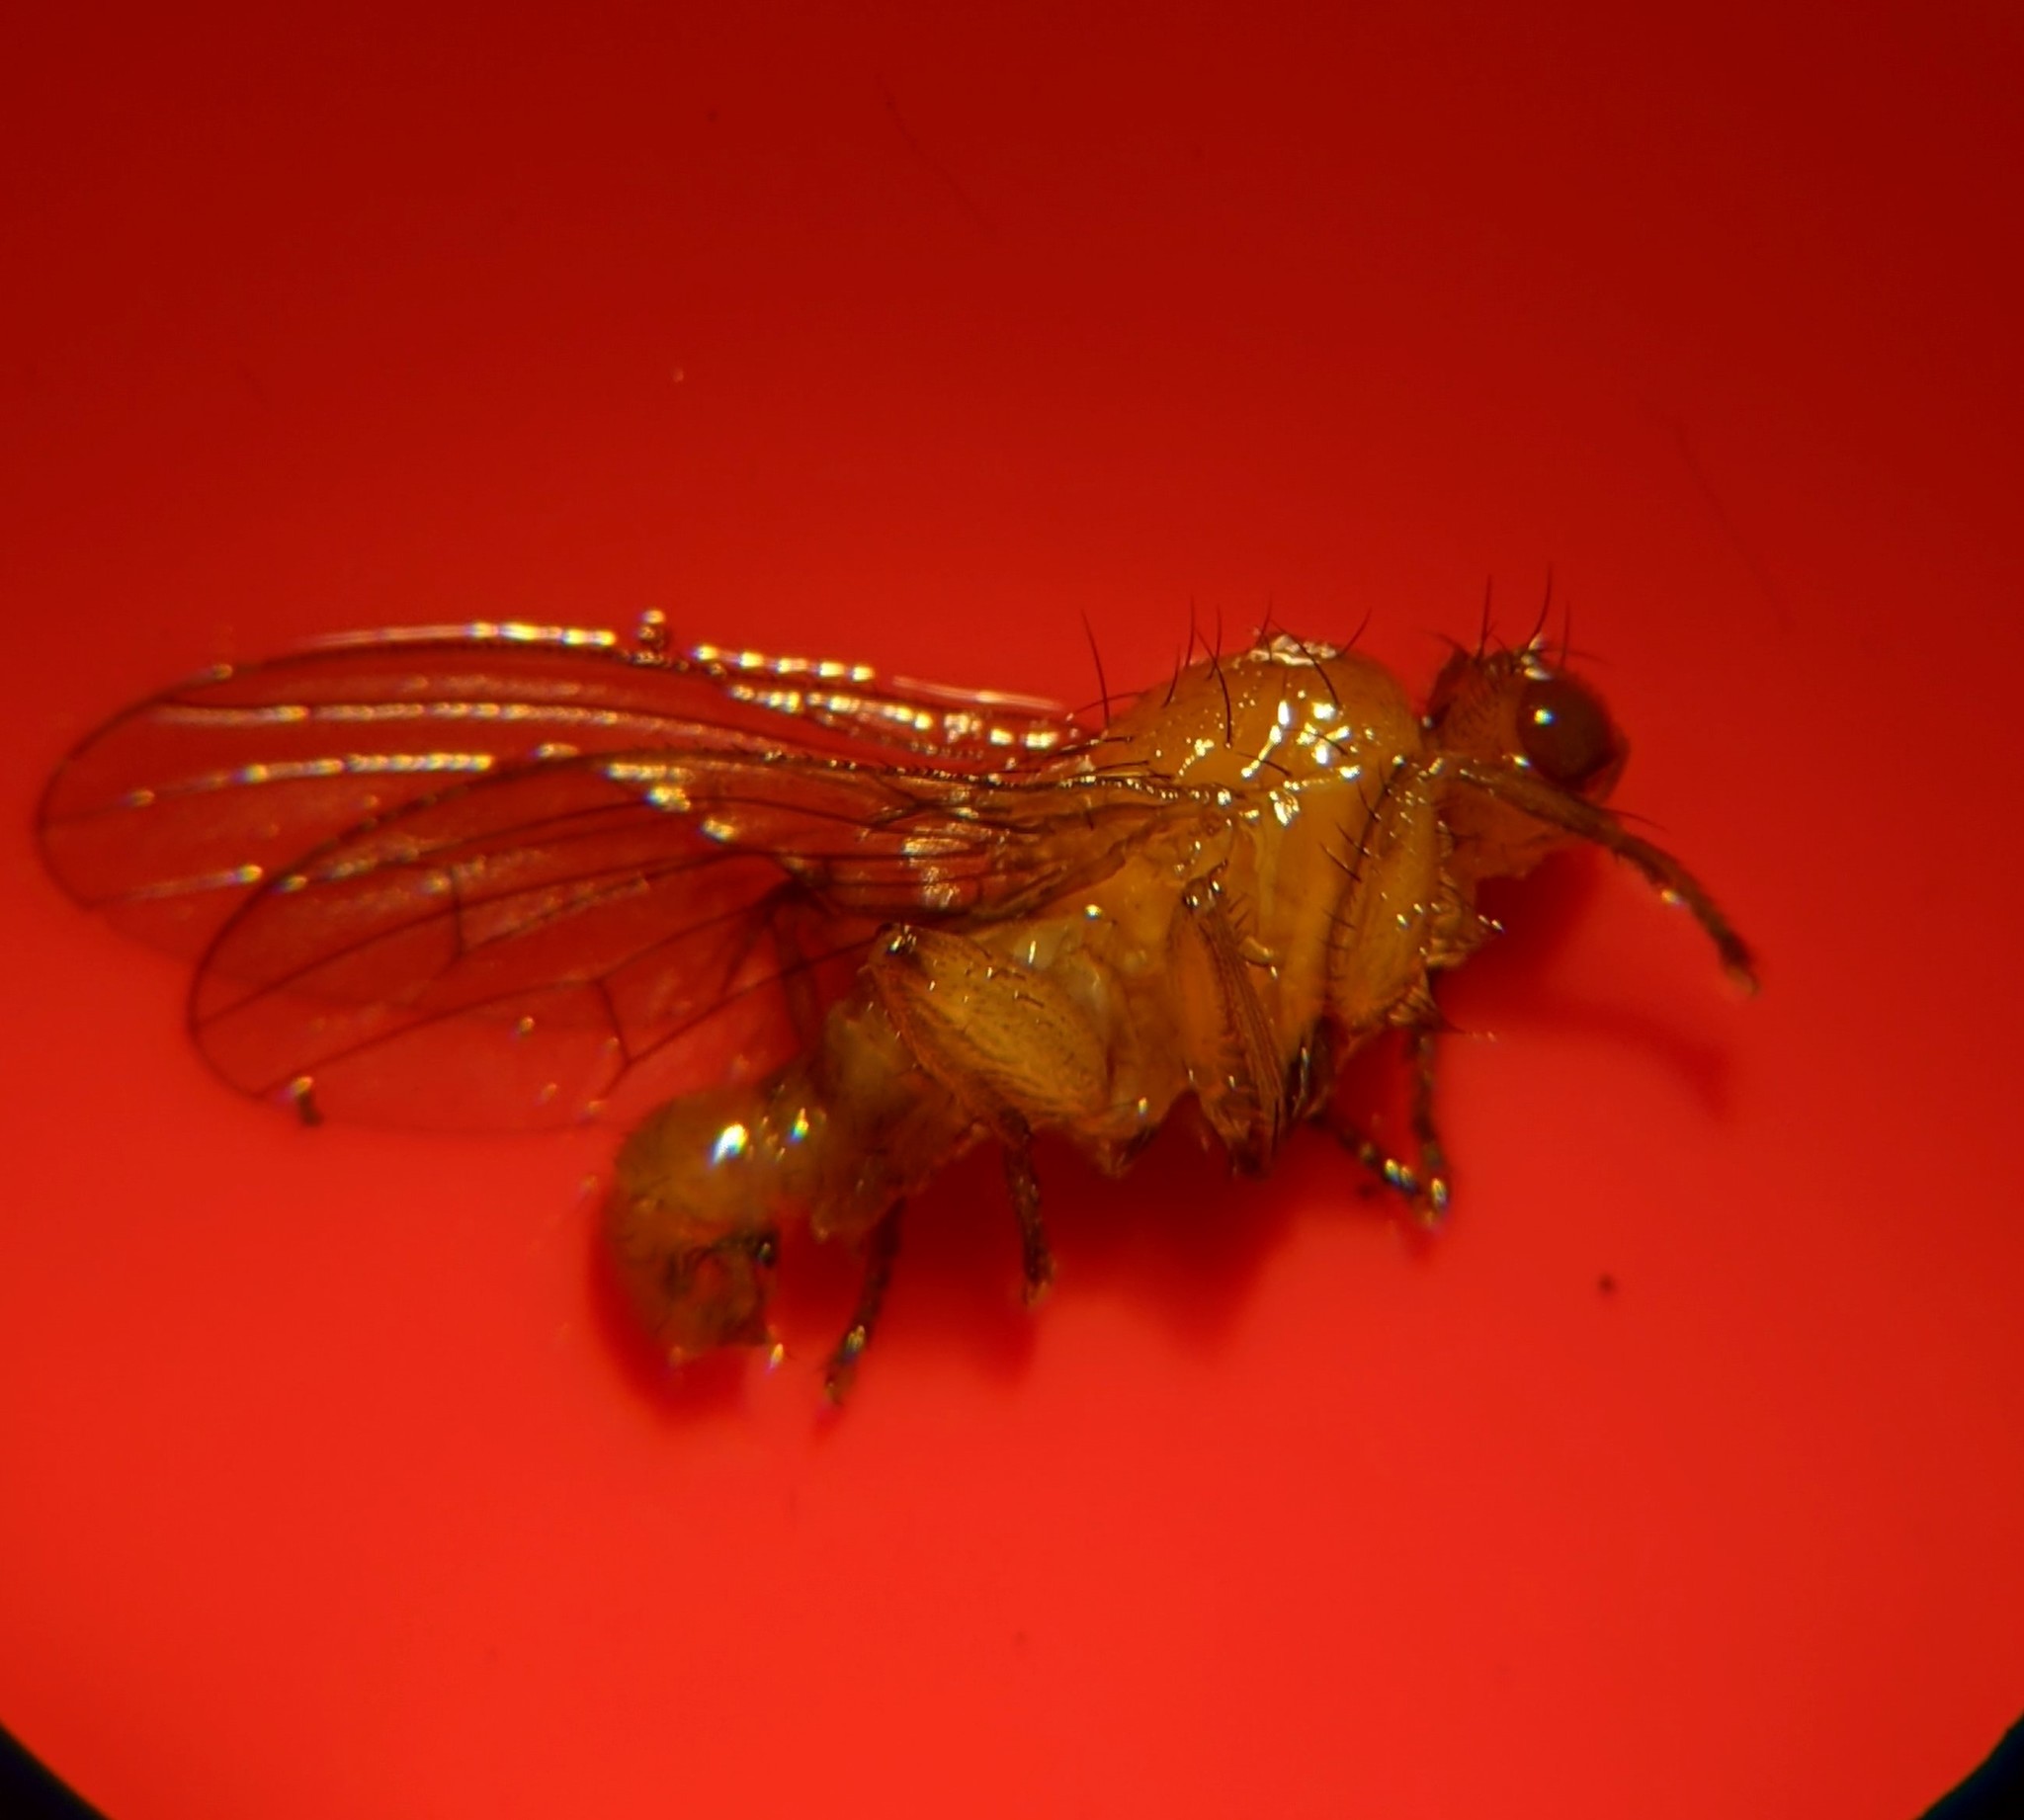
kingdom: Animalia
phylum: Arthropoda
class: Insecta
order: Diptera
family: Heleomyzidae
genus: Suillia
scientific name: Suillia convergens
